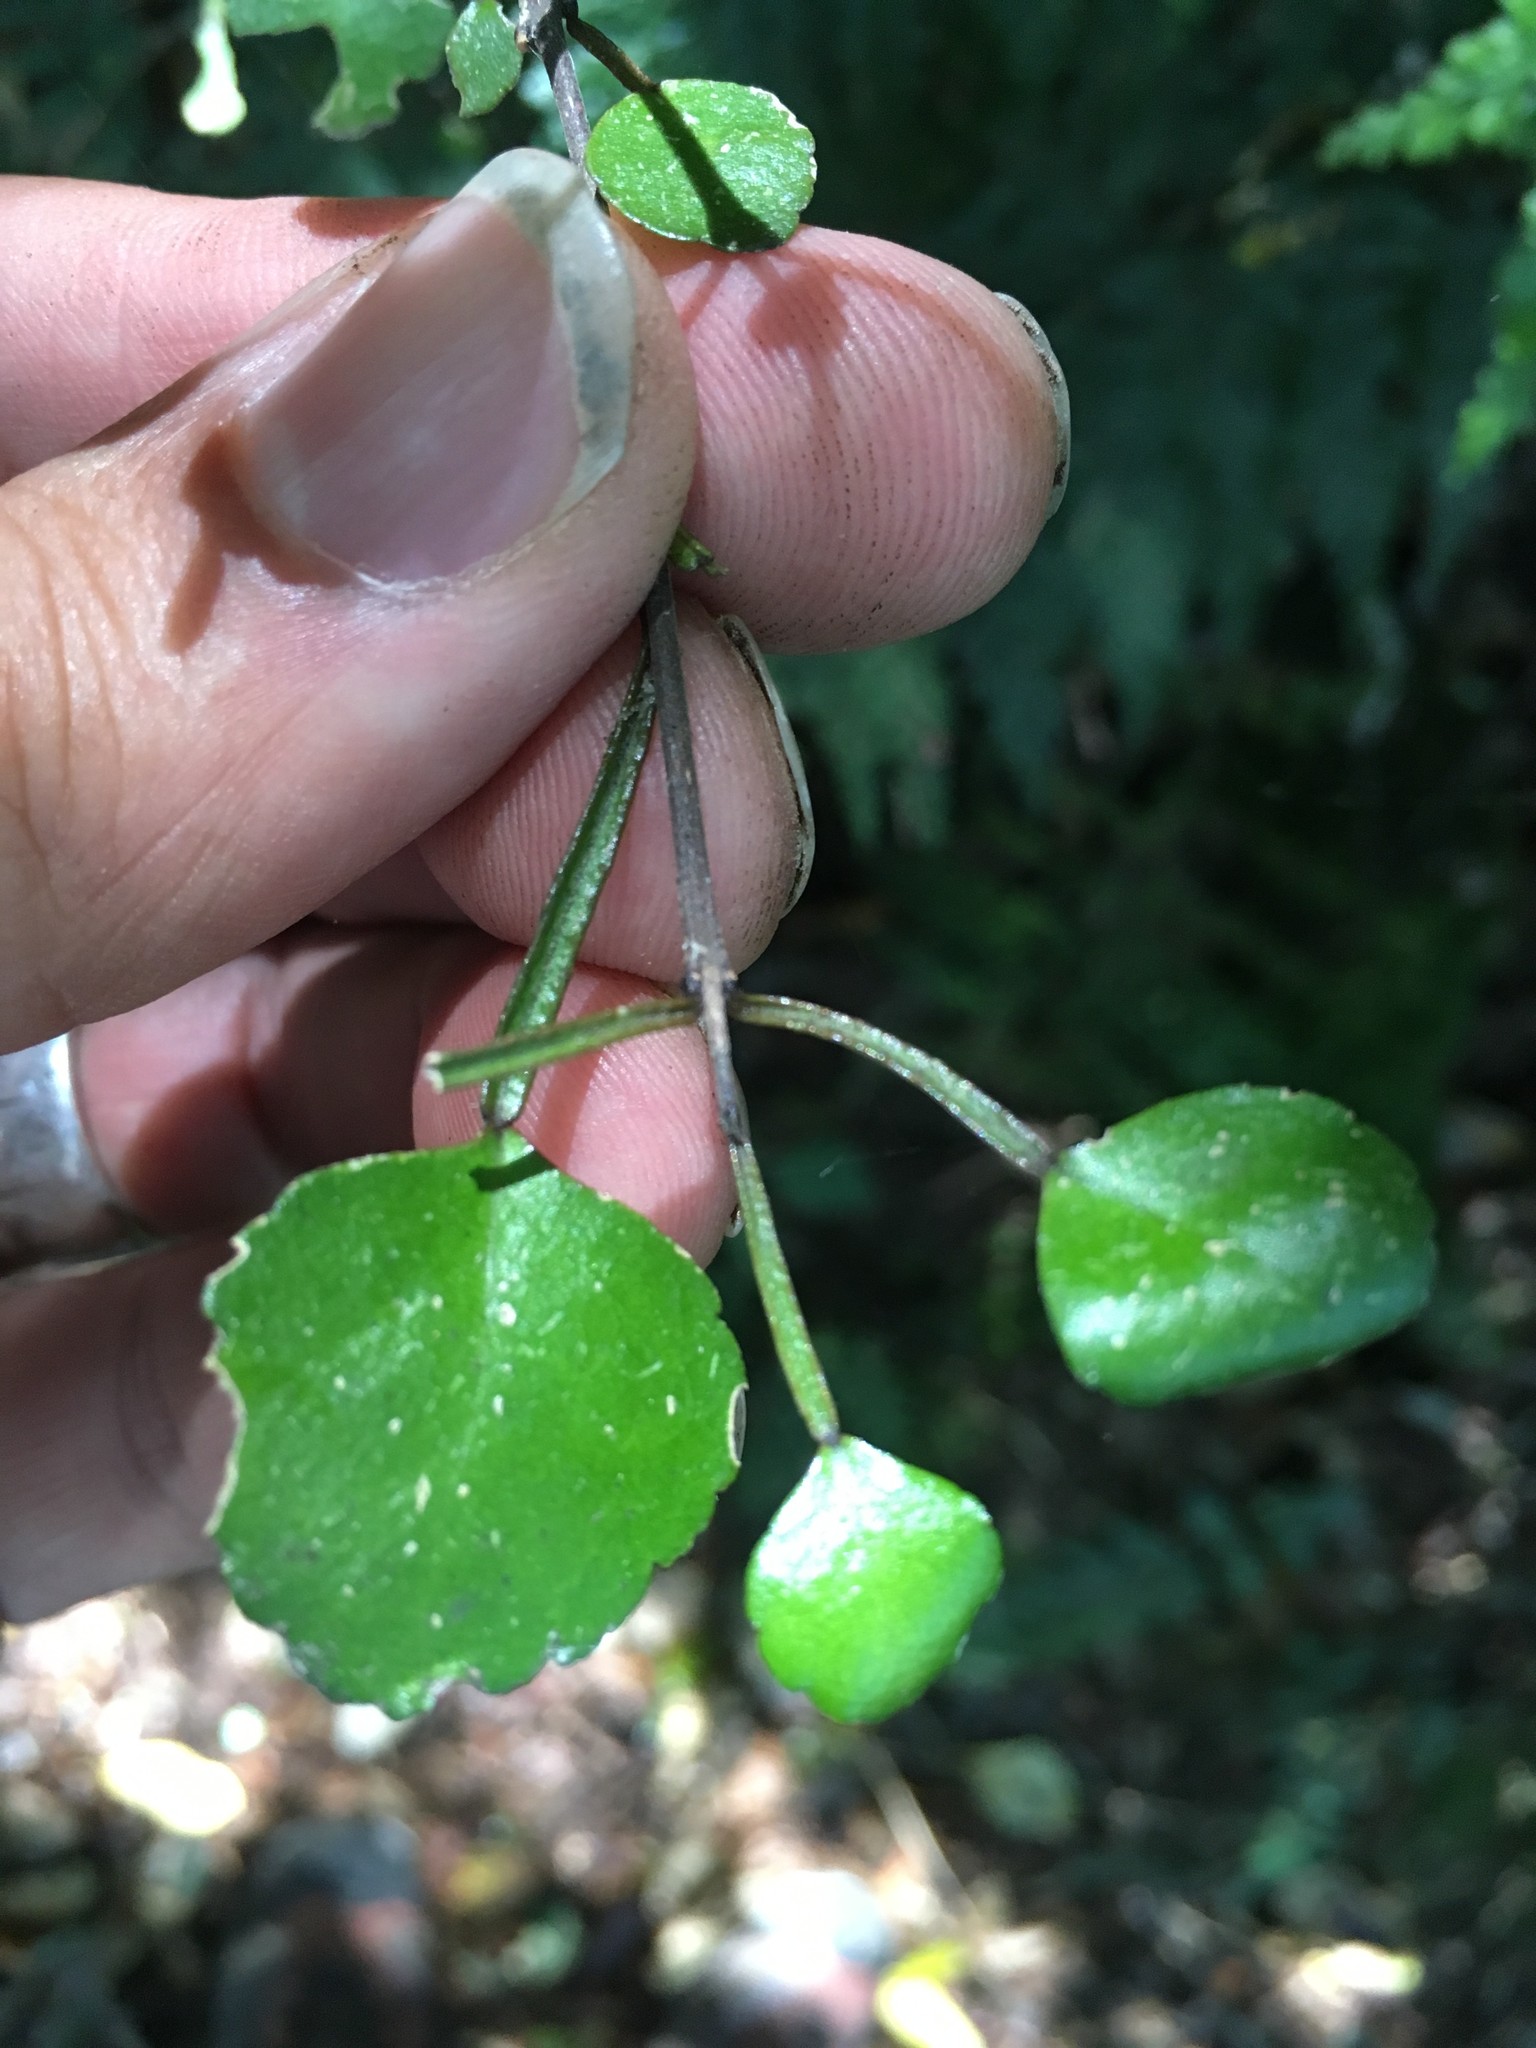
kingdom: Plantae
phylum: Tracheophyta
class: Magnoliopsida
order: Sapindales
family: Rutaceae
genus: Melicope
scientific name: Melicope simplex
